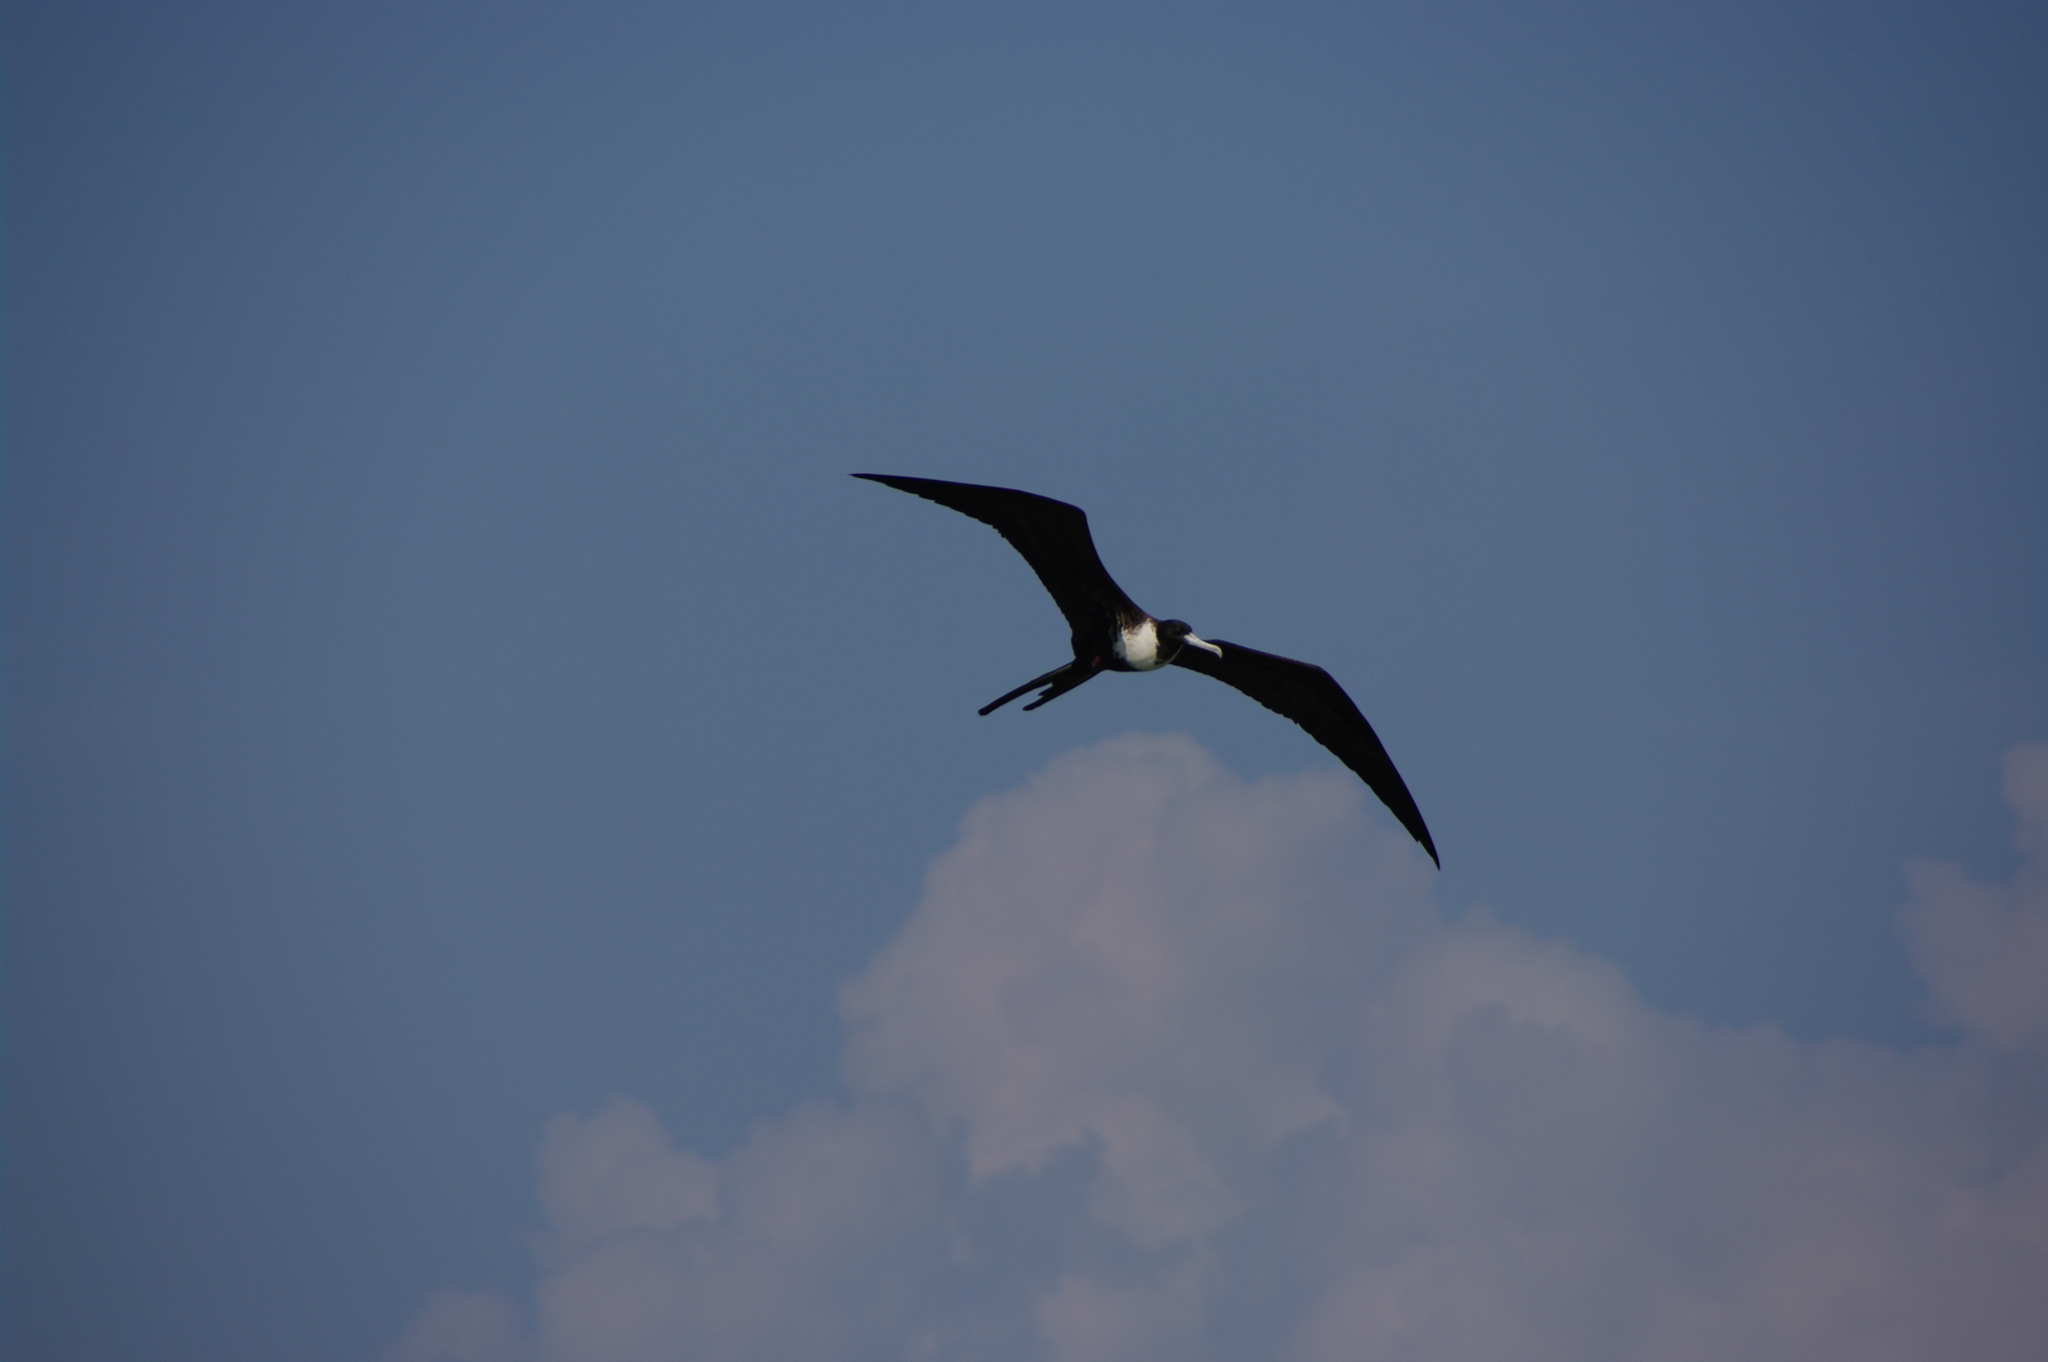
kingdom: Animalia
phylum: Chordata
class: Aves
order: Suliformes
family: Fregatidae
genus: Fregata
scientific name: Fregata magnificens
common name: Magnificent frigatebird
